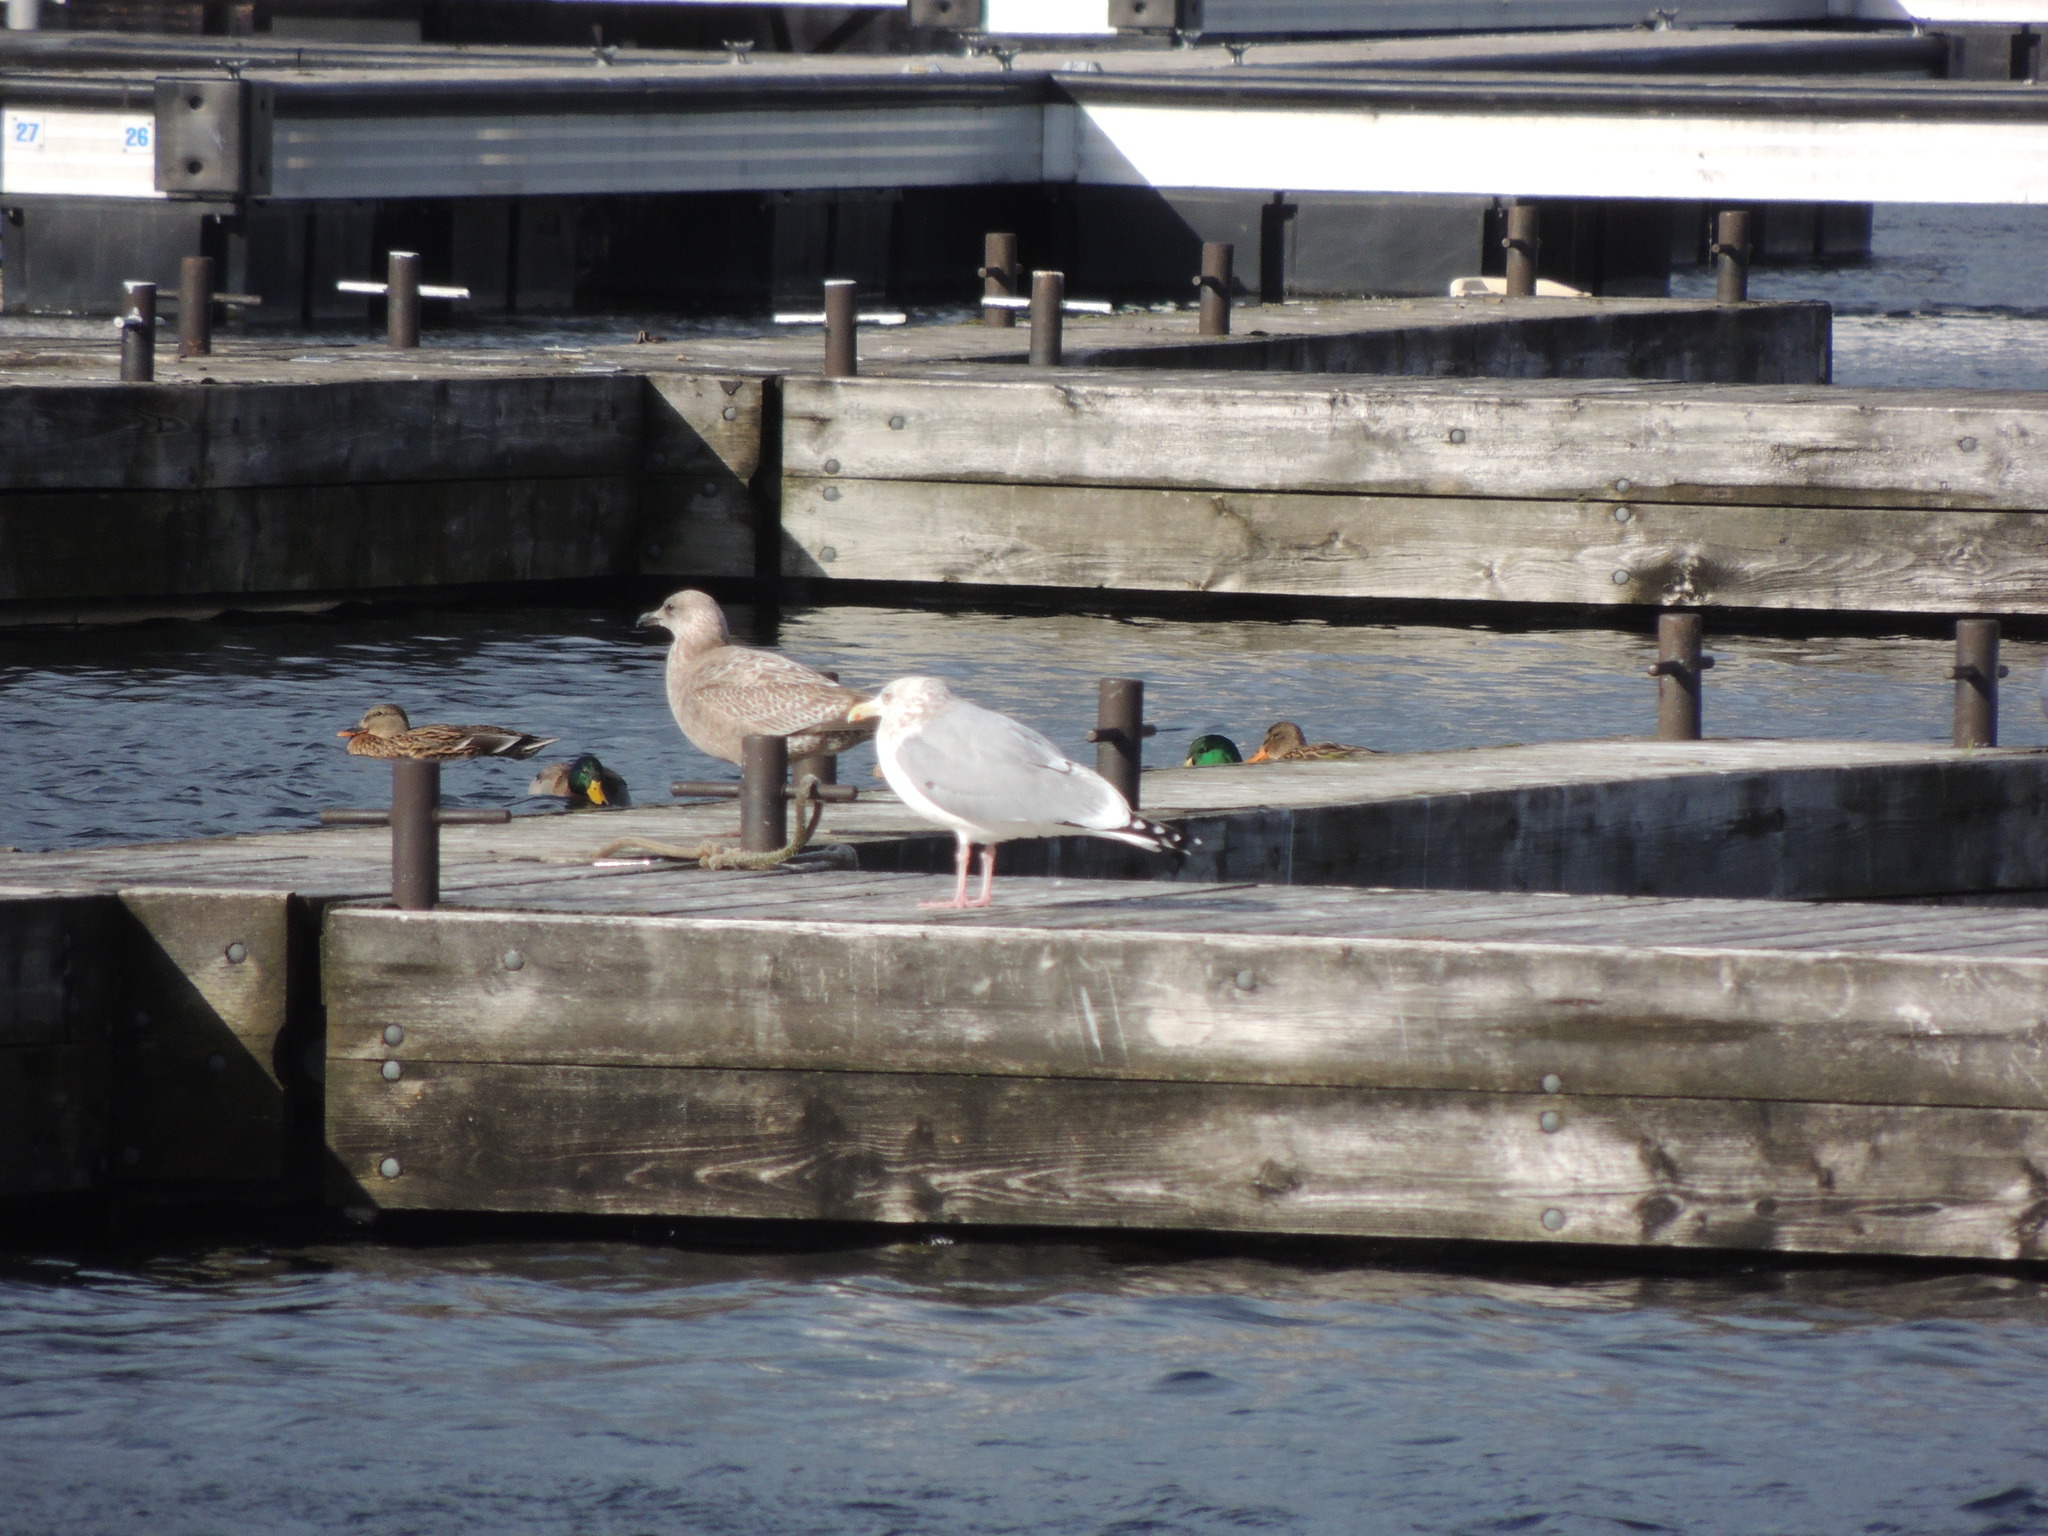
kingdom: Animalia
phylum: Chordata
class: Aves
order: Charadriiformes
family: Laridae
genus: Larus
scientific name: Larus argentatus
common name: Herring gull
